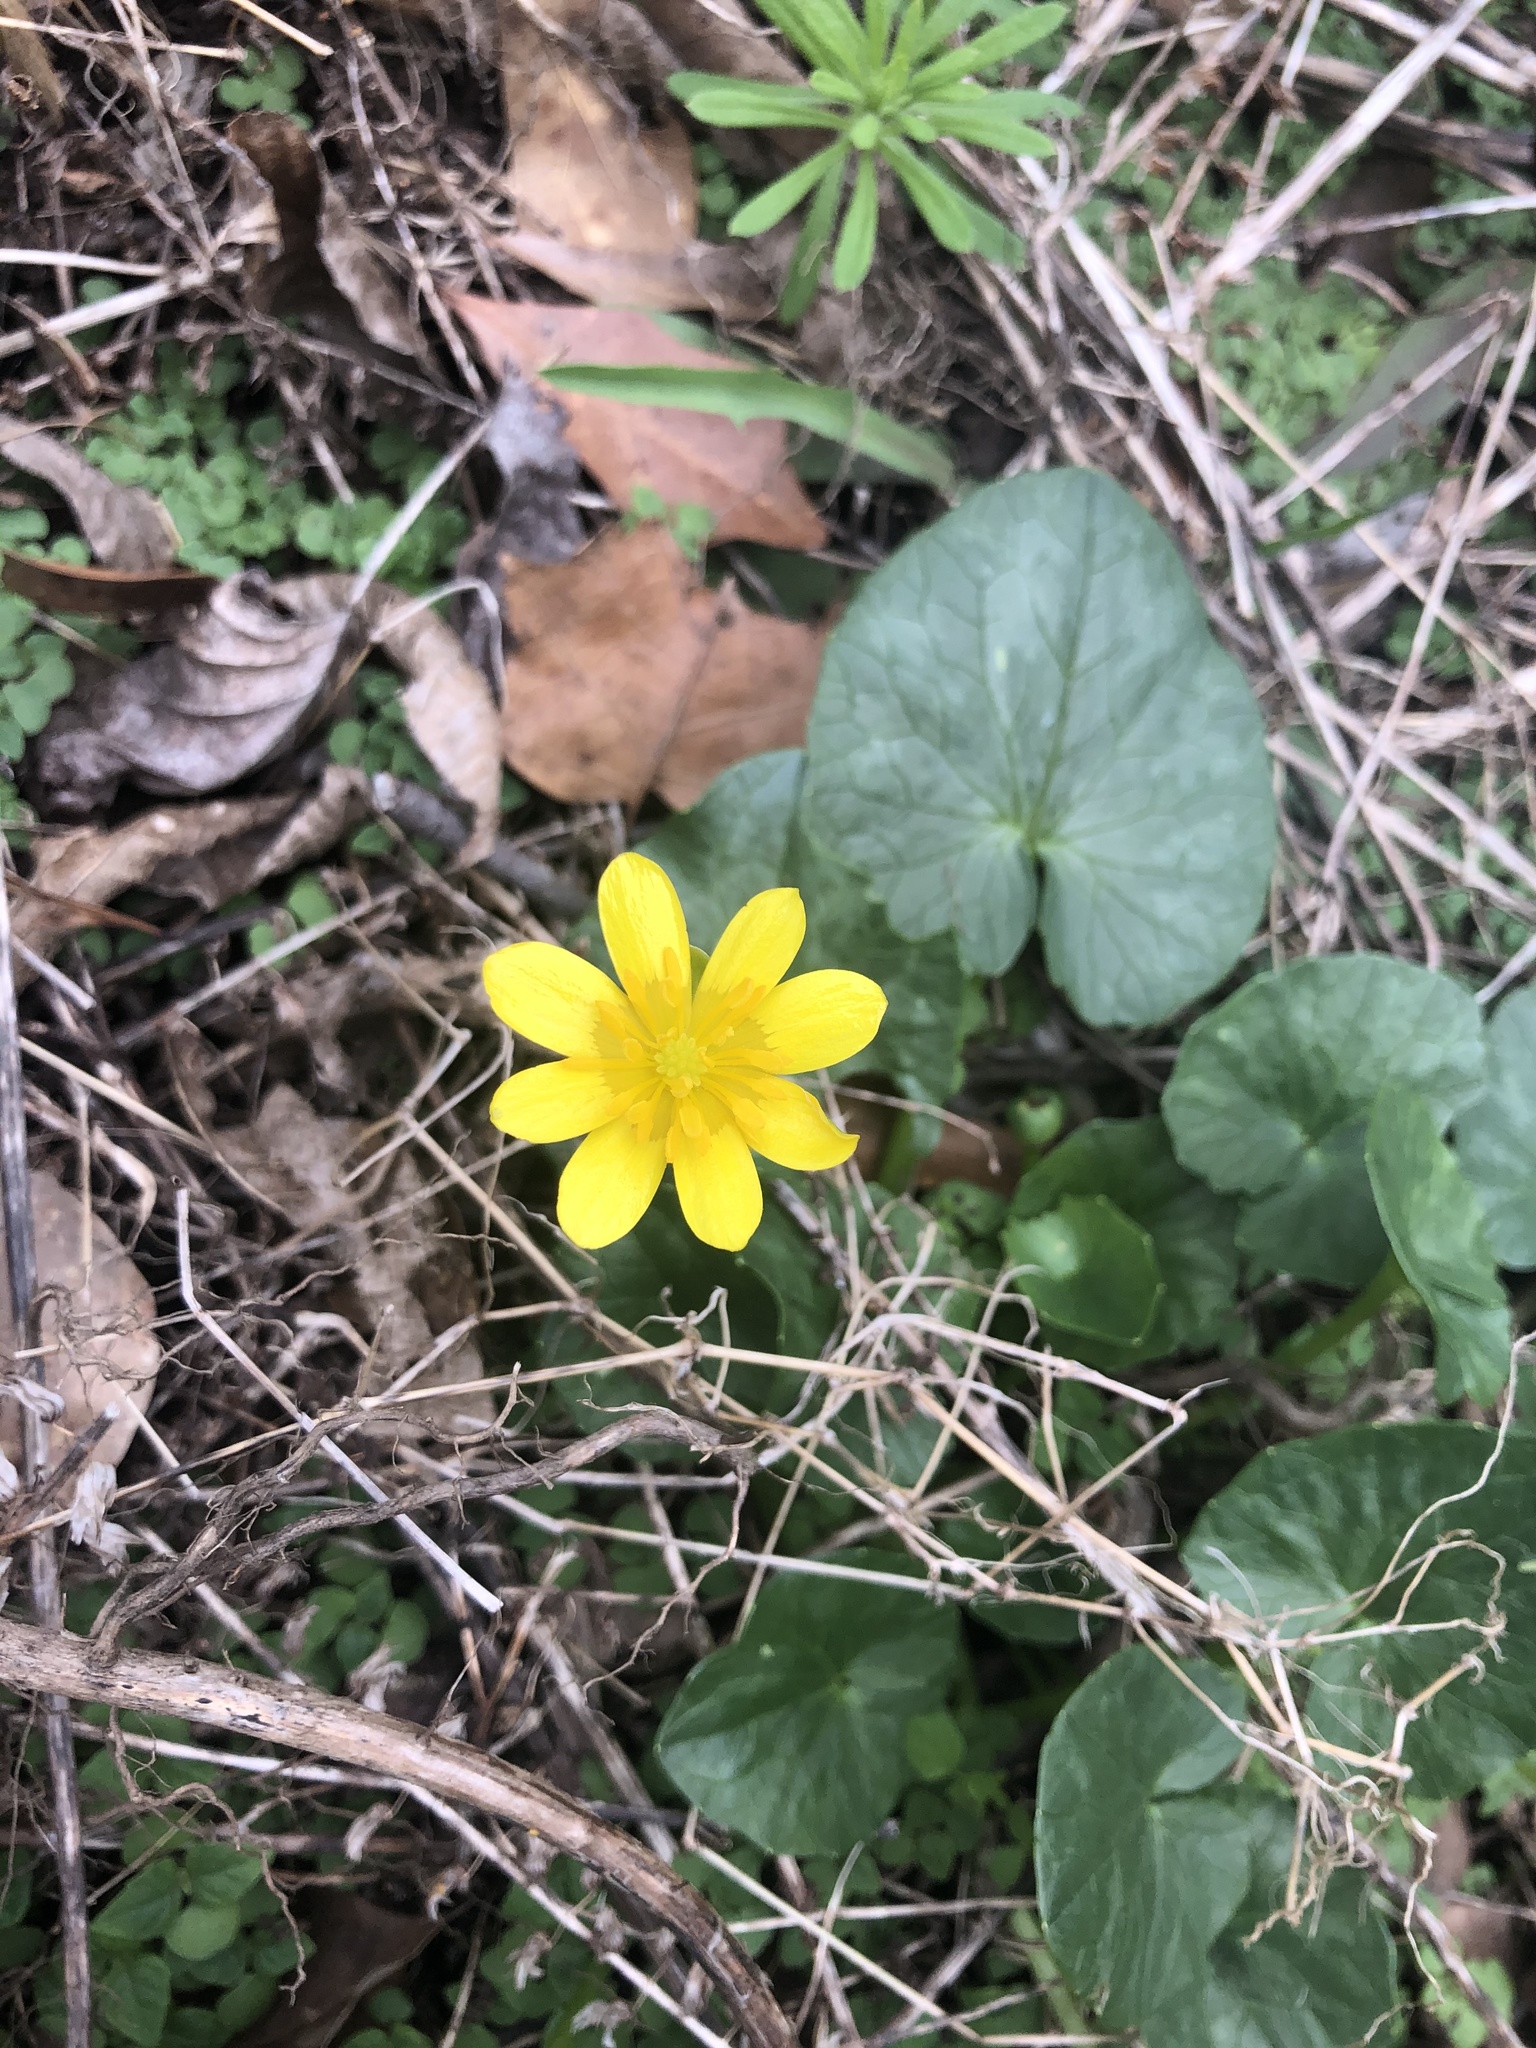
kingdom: Plantae
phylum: Tracheophyta
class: Magnoliopsida
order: Ranunculales
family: Ranunculaceae
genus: Ficaria
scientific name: Ficaria verna
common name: Lesser celandine
